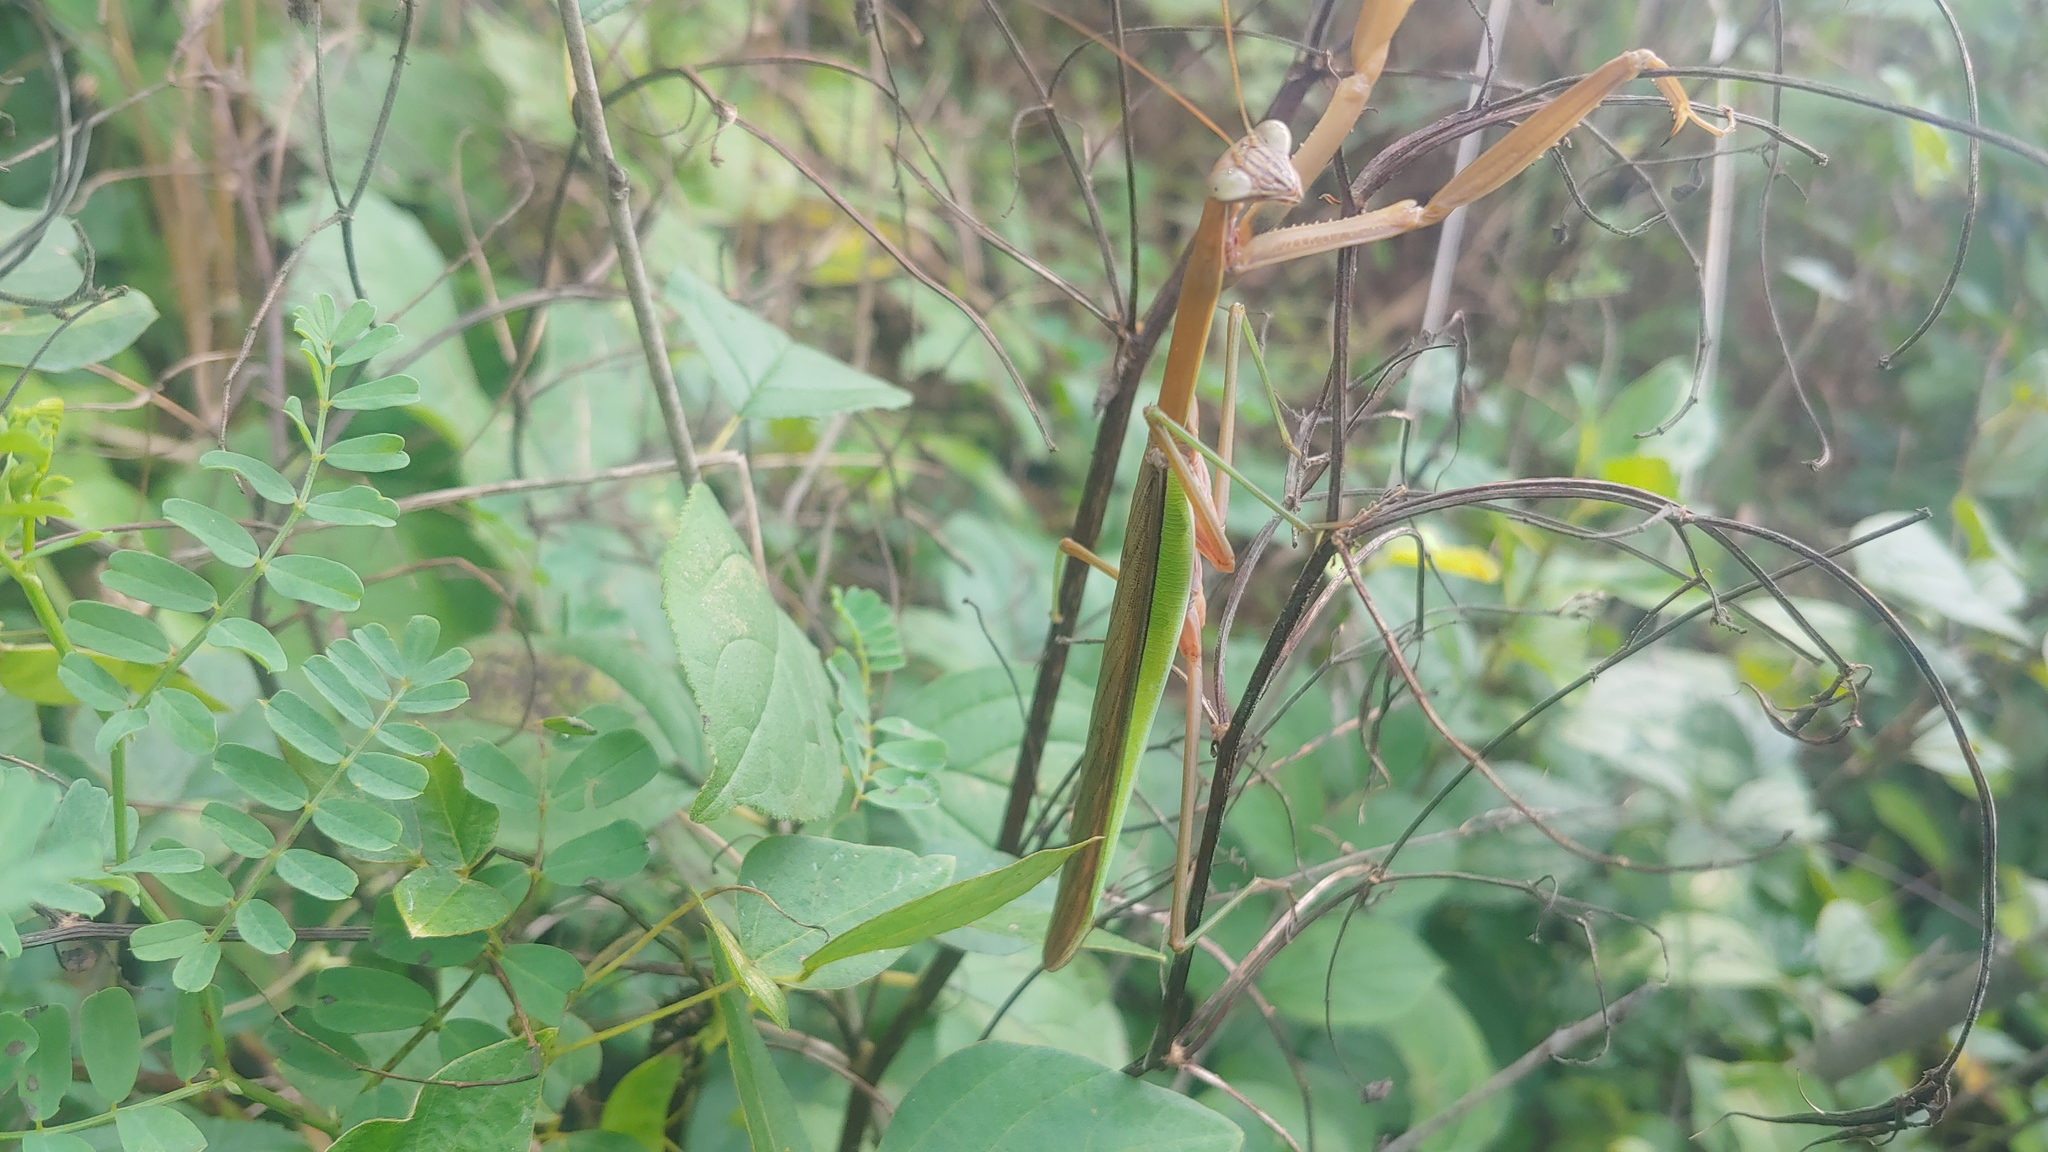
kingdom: Animalia
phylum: Arthropoda
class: Insecta
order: Mantodea
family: Mantidae
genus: Tenodera
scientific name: Tenodera sinensis
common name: Chinese mantis
